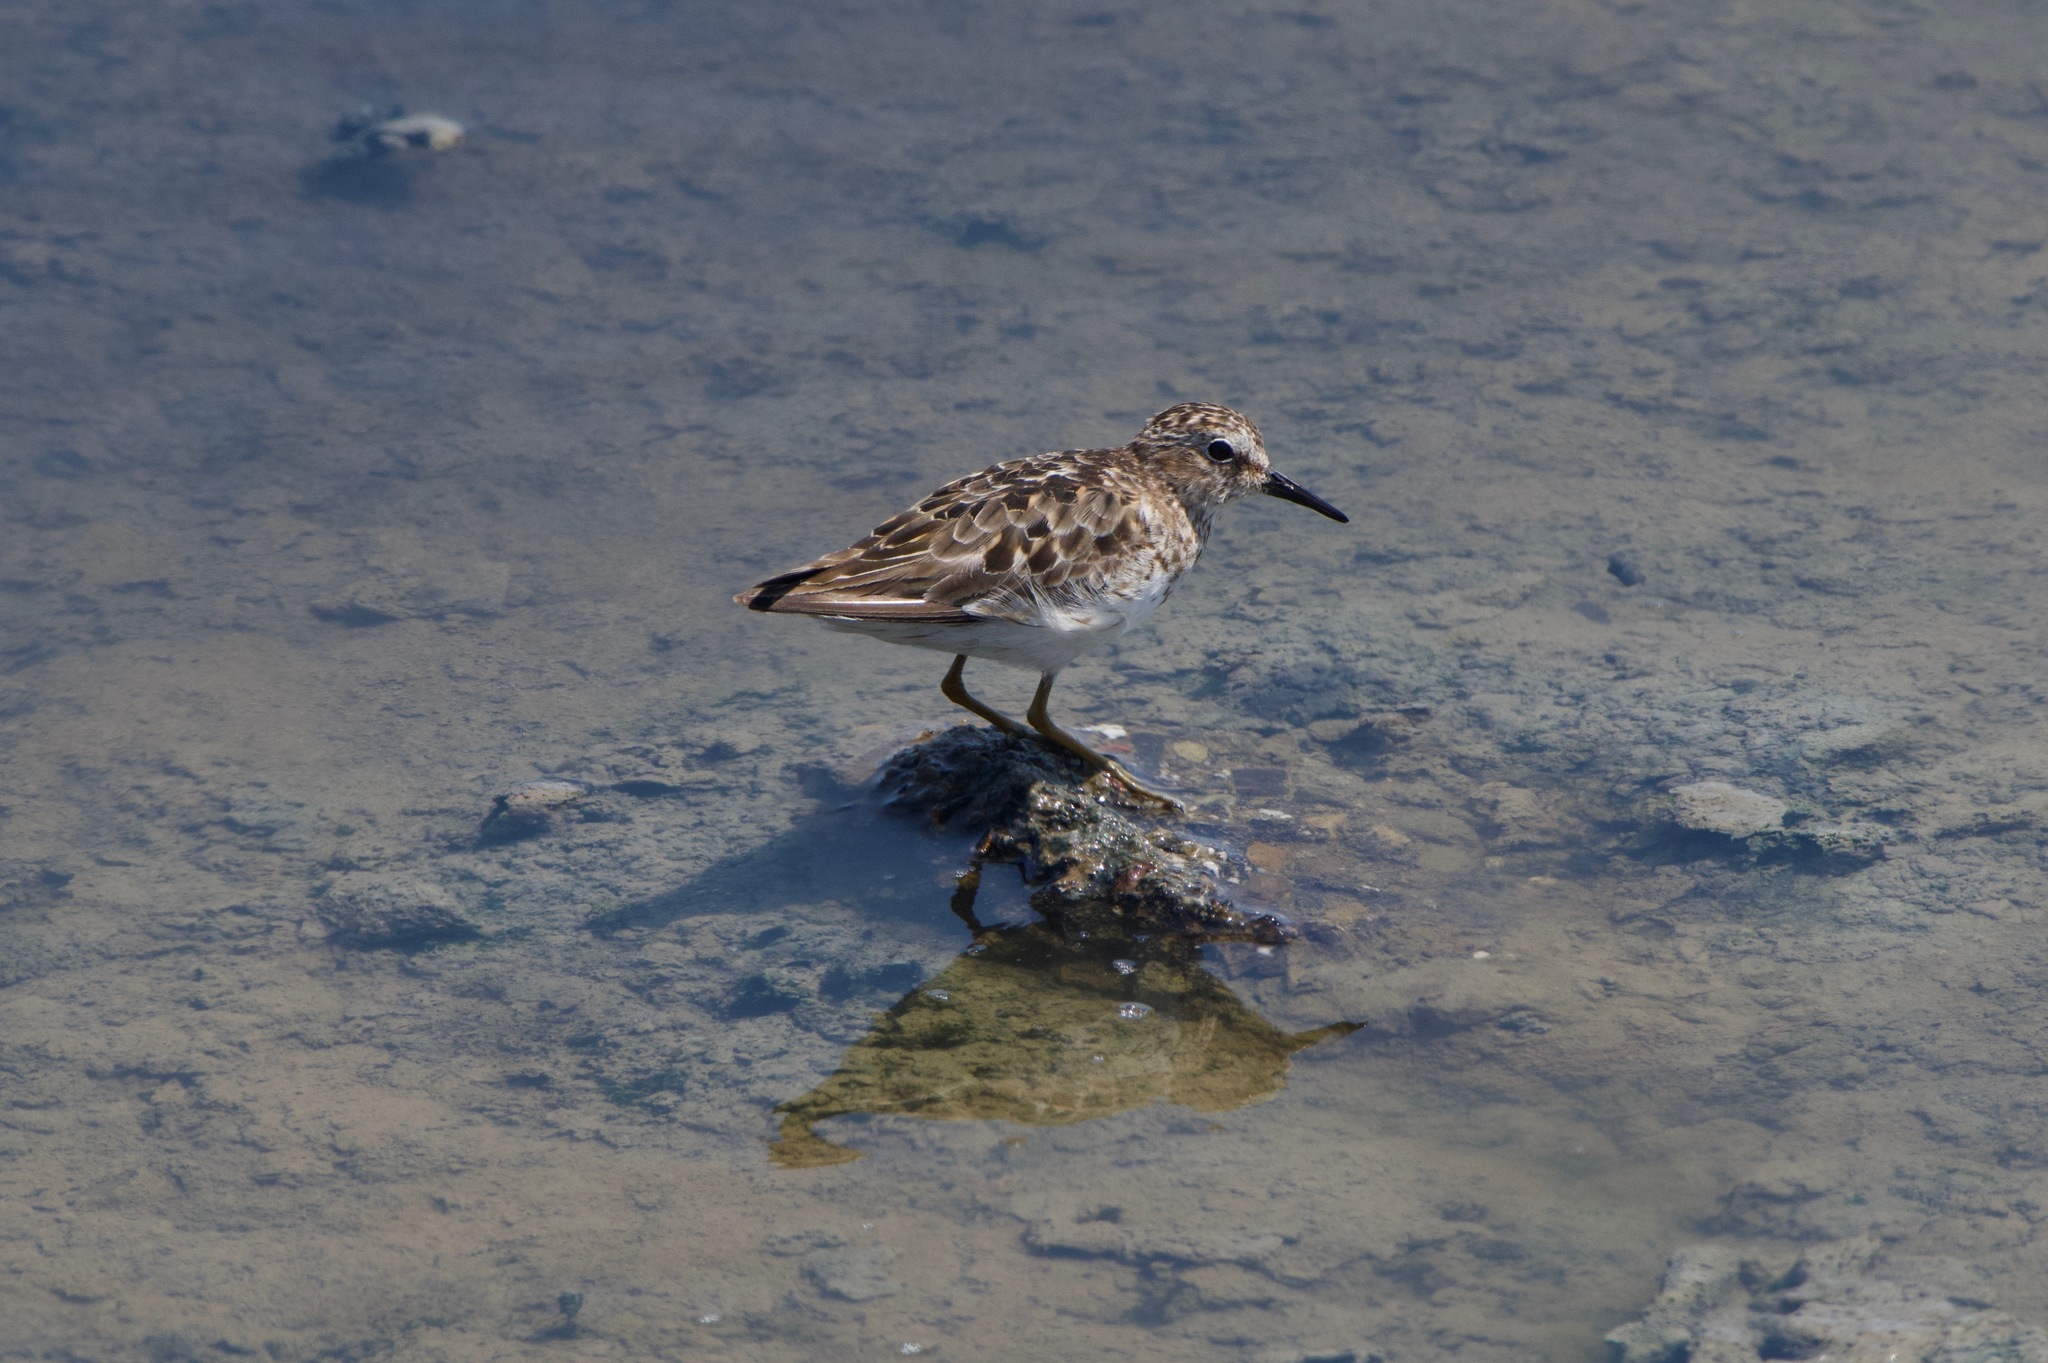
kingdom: Animalia
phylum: Chordata
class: Aves
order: Charadriiformes
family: Scolopacidae
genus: Calidris
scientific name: Calidris minutilla
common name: Least sandpiper
